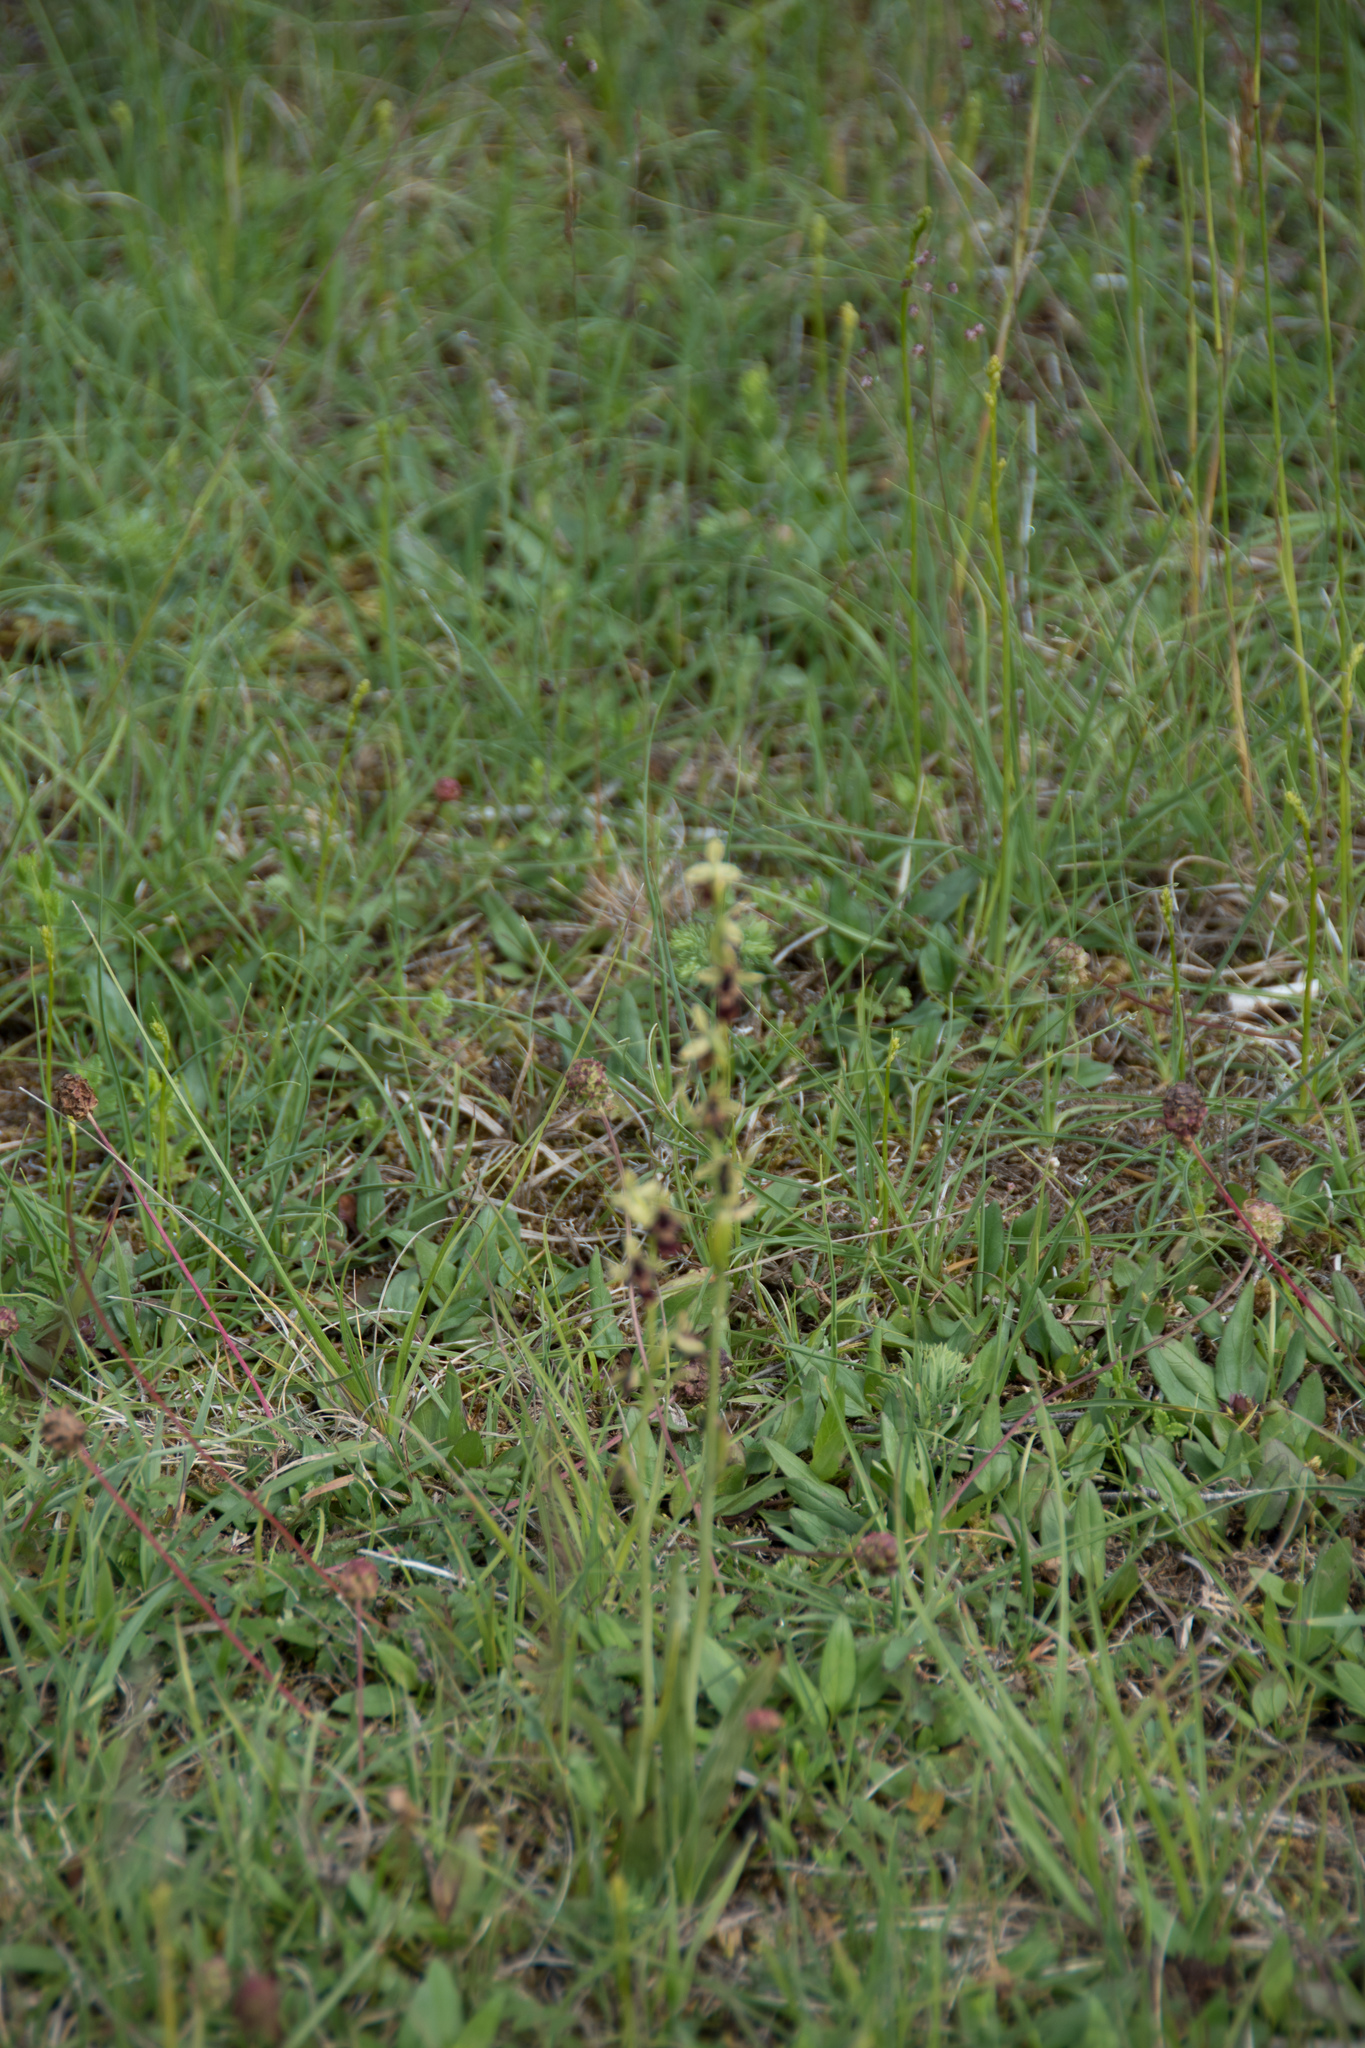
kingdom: Plantae
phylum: Tracheophyta
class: Liliopsida
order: Asparagales
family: Orchidaceae
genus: Ophrys
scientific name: Ophrys insectifera
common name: Fly orchid
